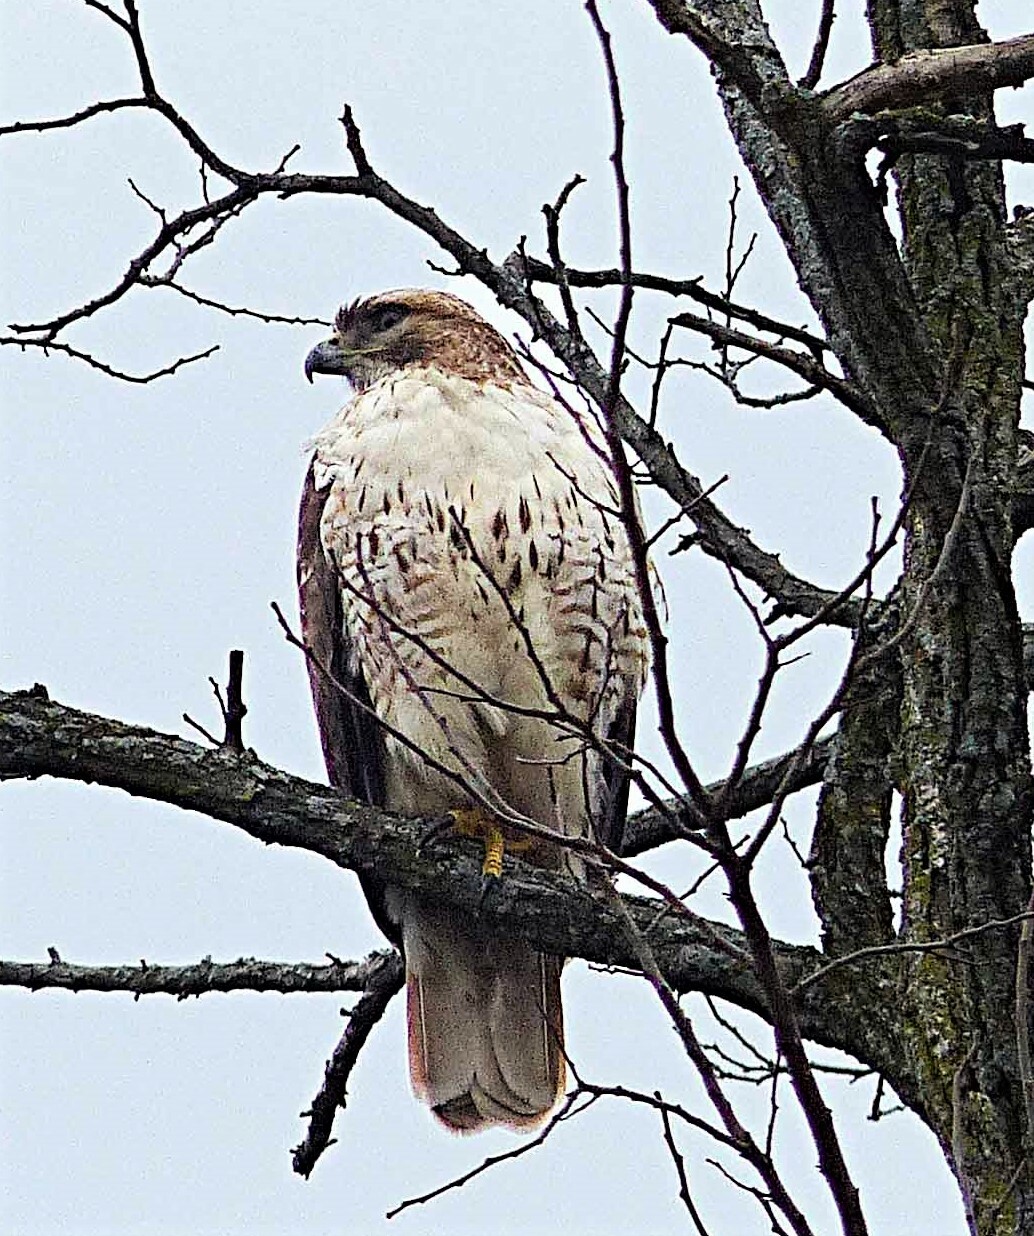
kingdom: Animalia
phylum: Chordata
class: Aves
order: Accipitriformes
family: Accipitridae
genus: Buteo
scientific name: Buteo jamaicensis
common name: Red-tailed hawk
